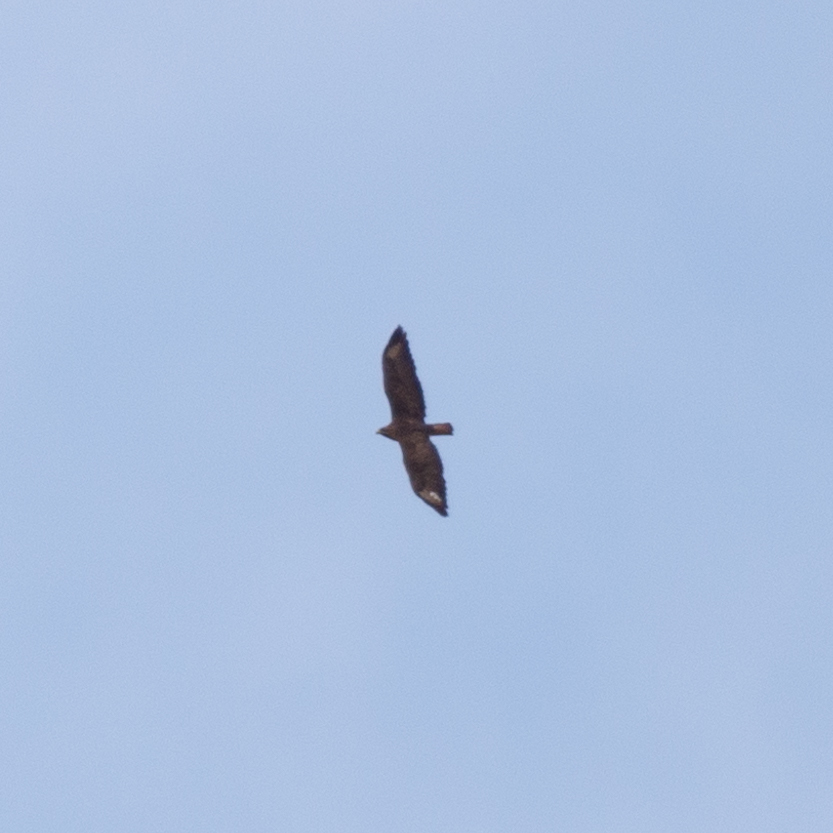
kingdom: Animalia
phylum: Chordata
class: Aves
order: Accipitriformes
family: Accipitridae
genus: Buteo
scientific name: Buteo buteo
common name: Common buzzard
